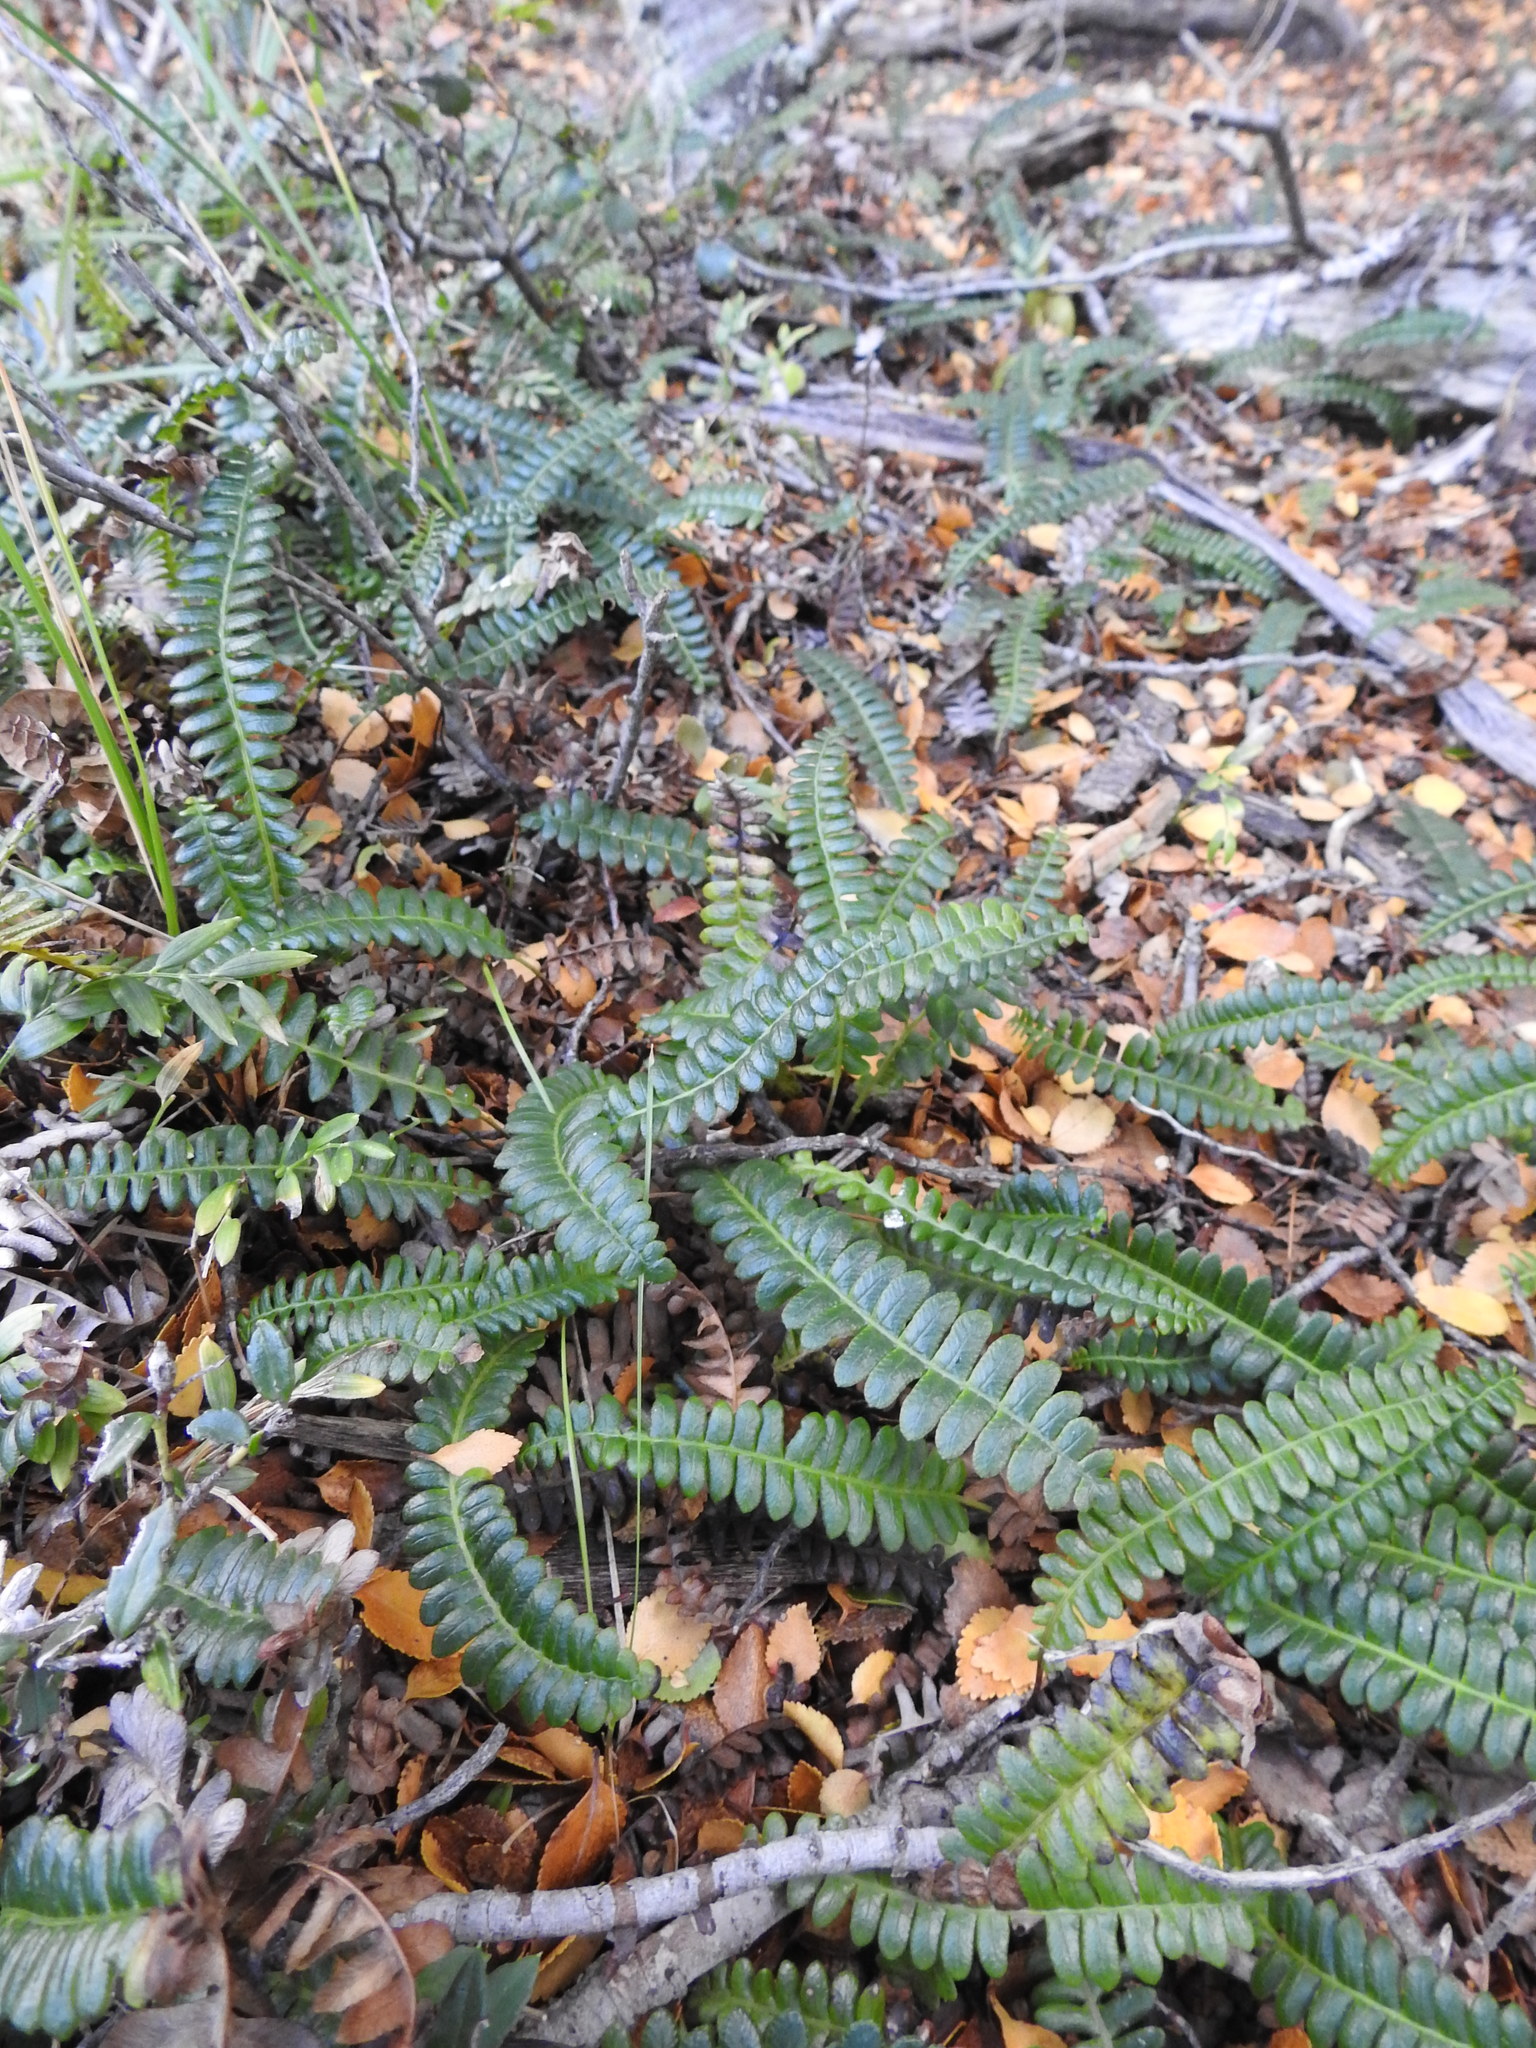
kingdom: Plantae
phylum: Tracheophyta
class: Polypodiopsida
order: Polypodiales
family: Blechnaceae
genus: Austroblechnum
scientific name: Austroblechnum penna-marina
